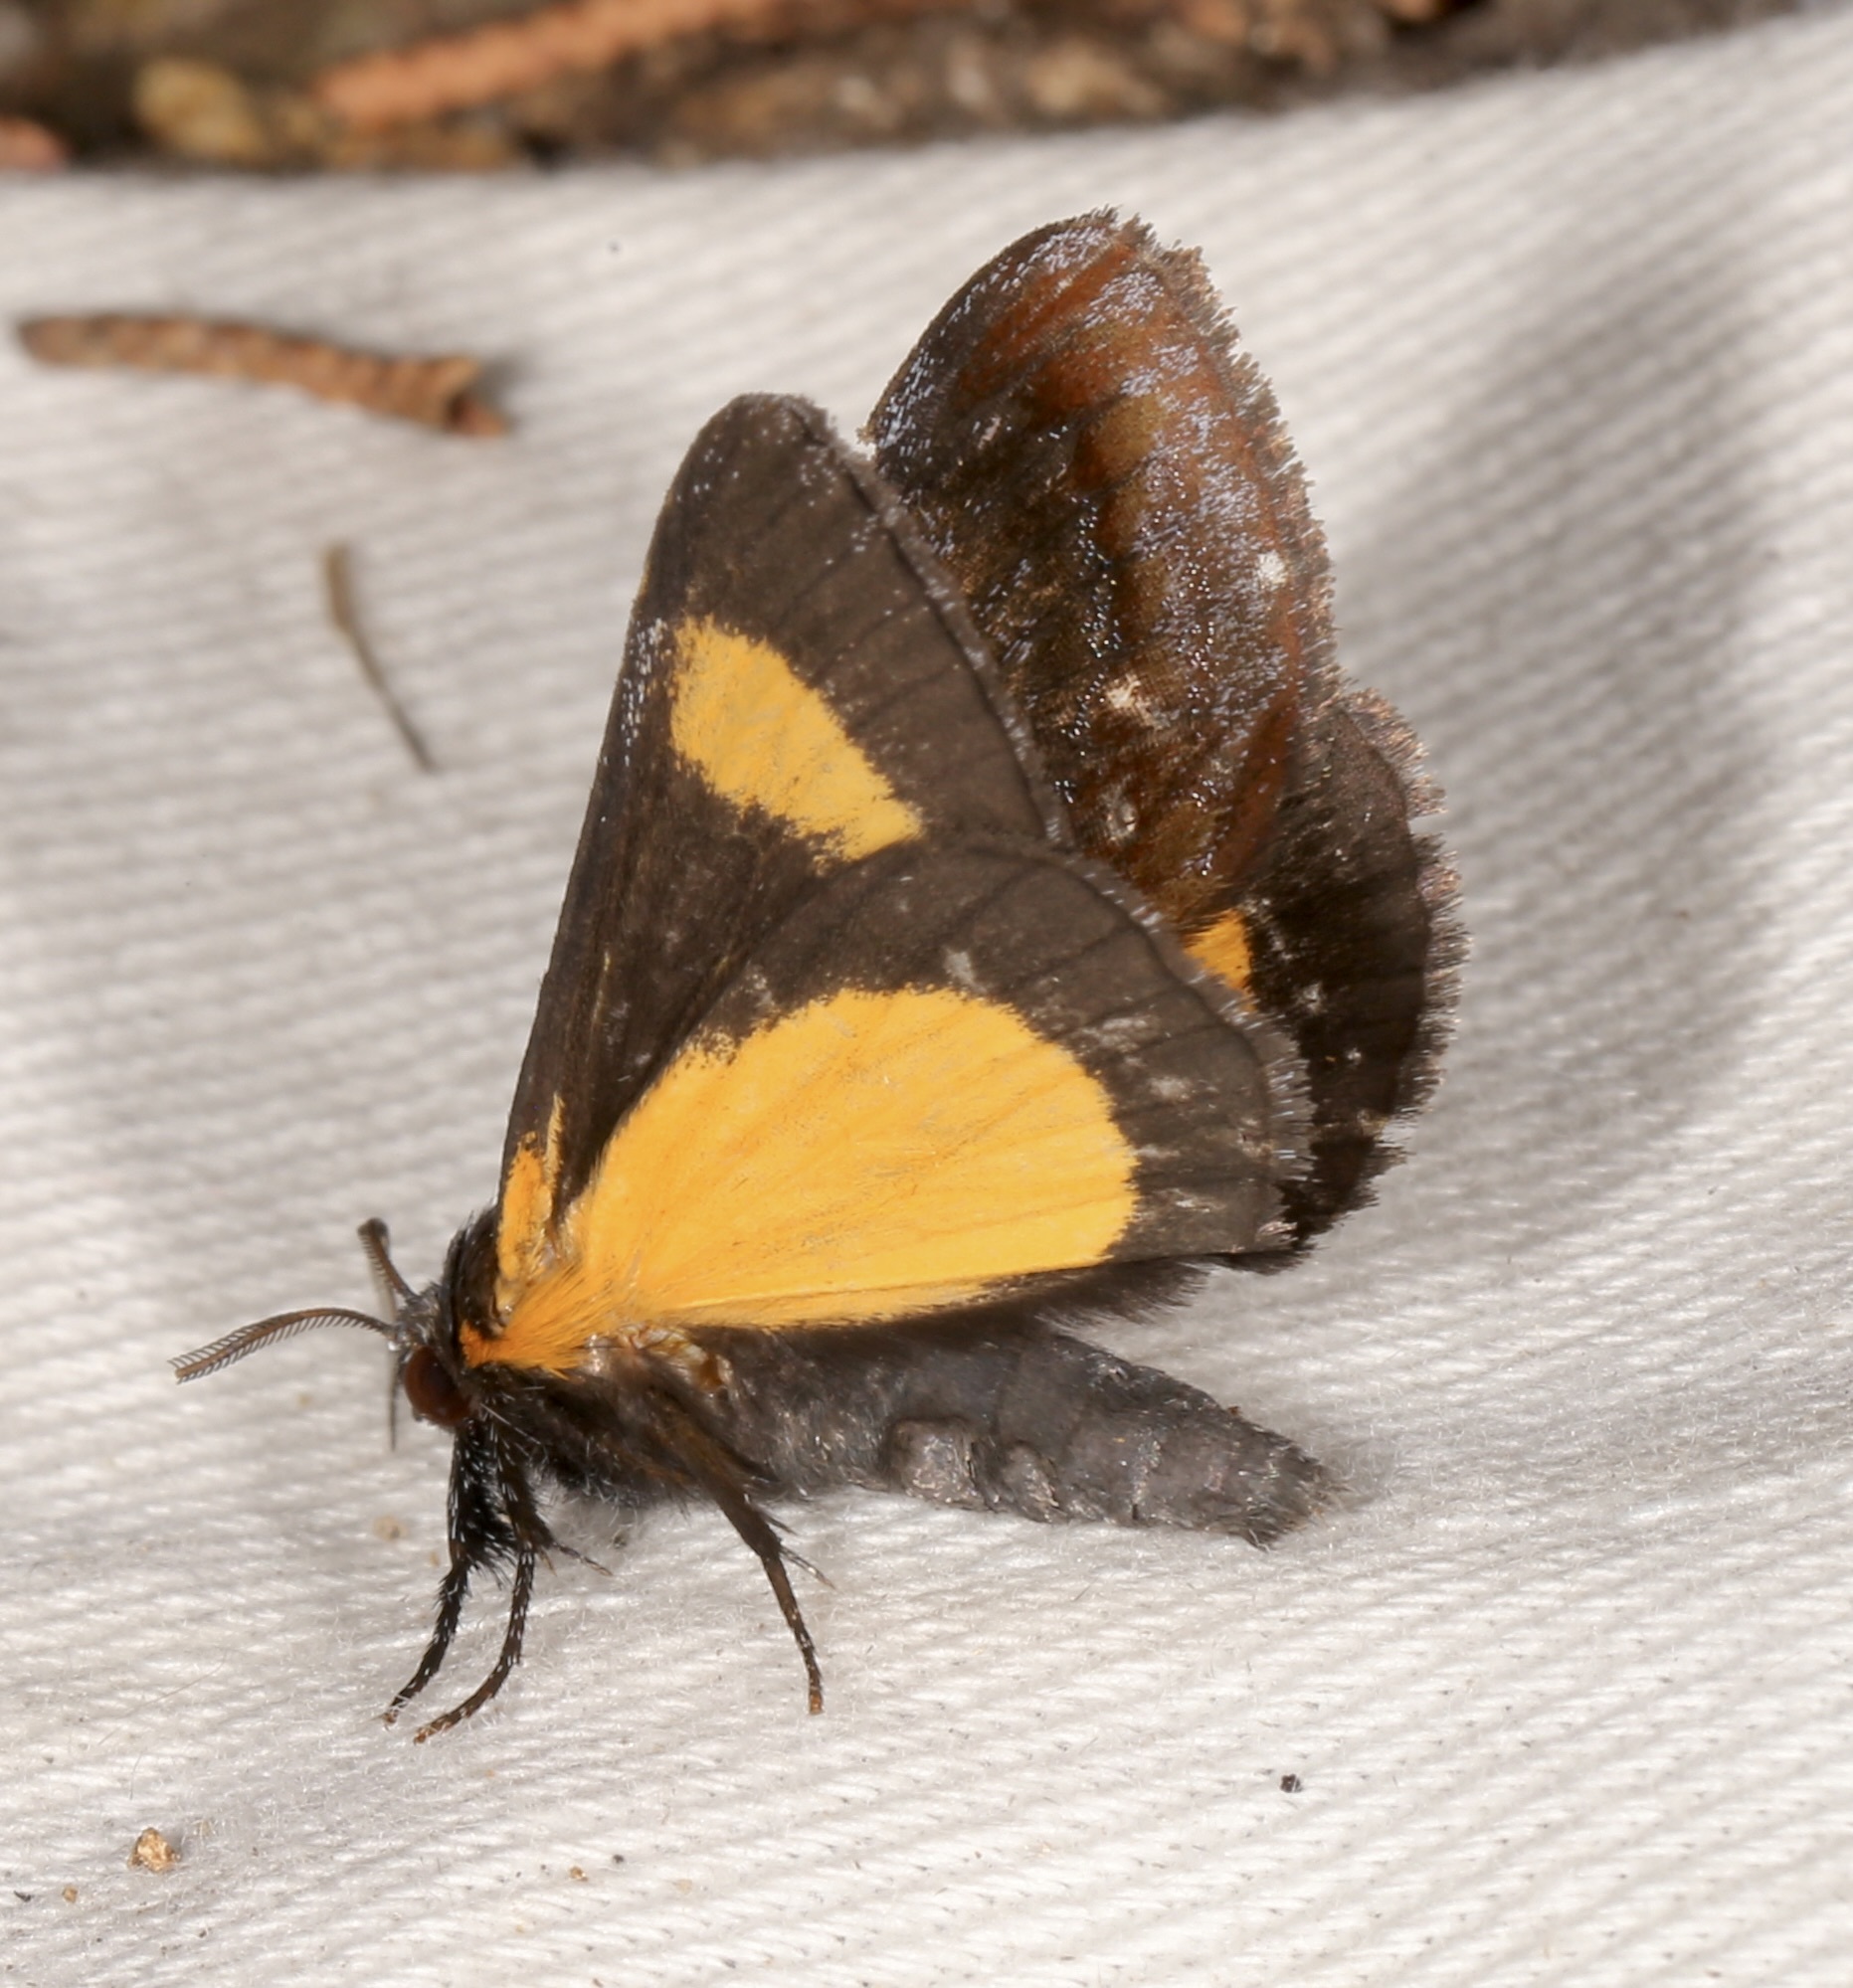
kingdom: Animalia
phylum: Arthropoda
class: Insecta
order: Lepidoptera
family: Noctuidae
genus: Gerra
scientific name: Gerra radicalis
